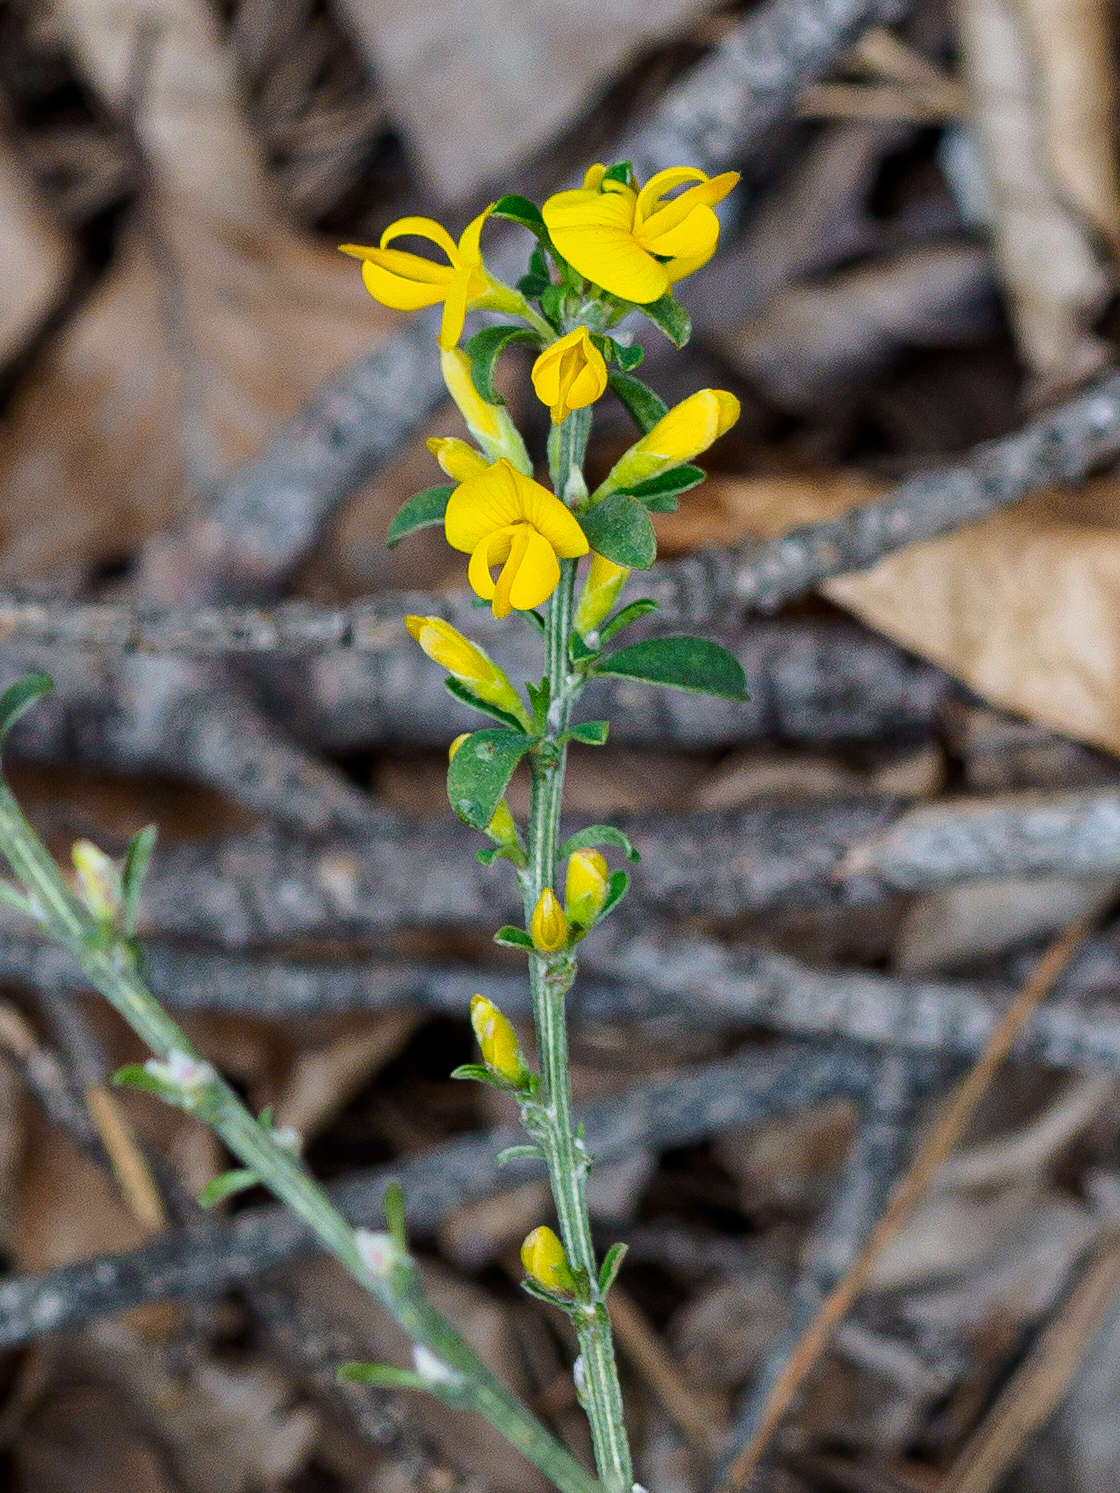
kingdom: Plantae
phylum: Tracheophyta
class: Magnoliopsida
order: Fabales
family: Fabaceae
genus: Genista
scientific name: Genista pilosa
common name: Hairy greenweed
